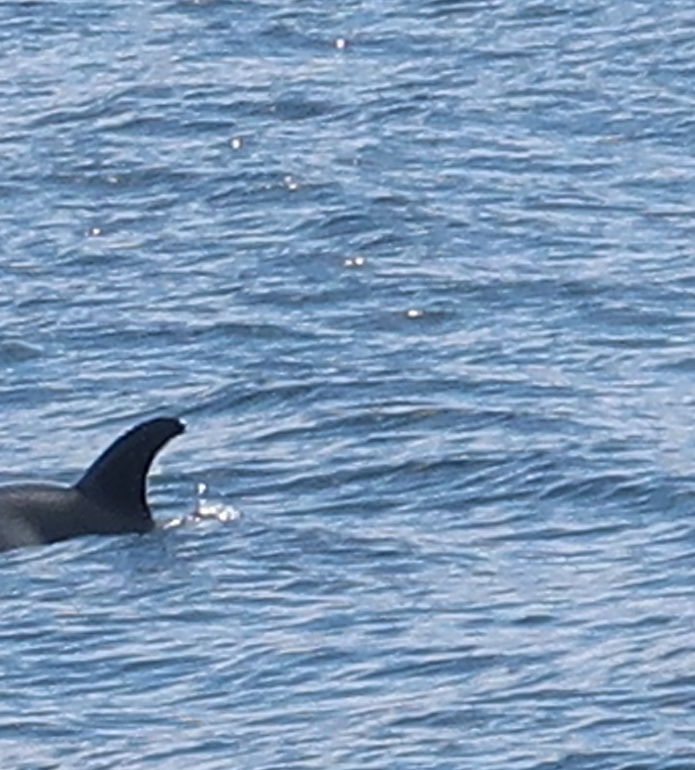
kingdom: Animalia
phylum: Chordata
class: Mammalia
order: Cetacea
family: Delphinidae
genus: Lagenorhynchus
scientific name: Lagenorhynchus albirostris
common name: White-beaked dolphin
